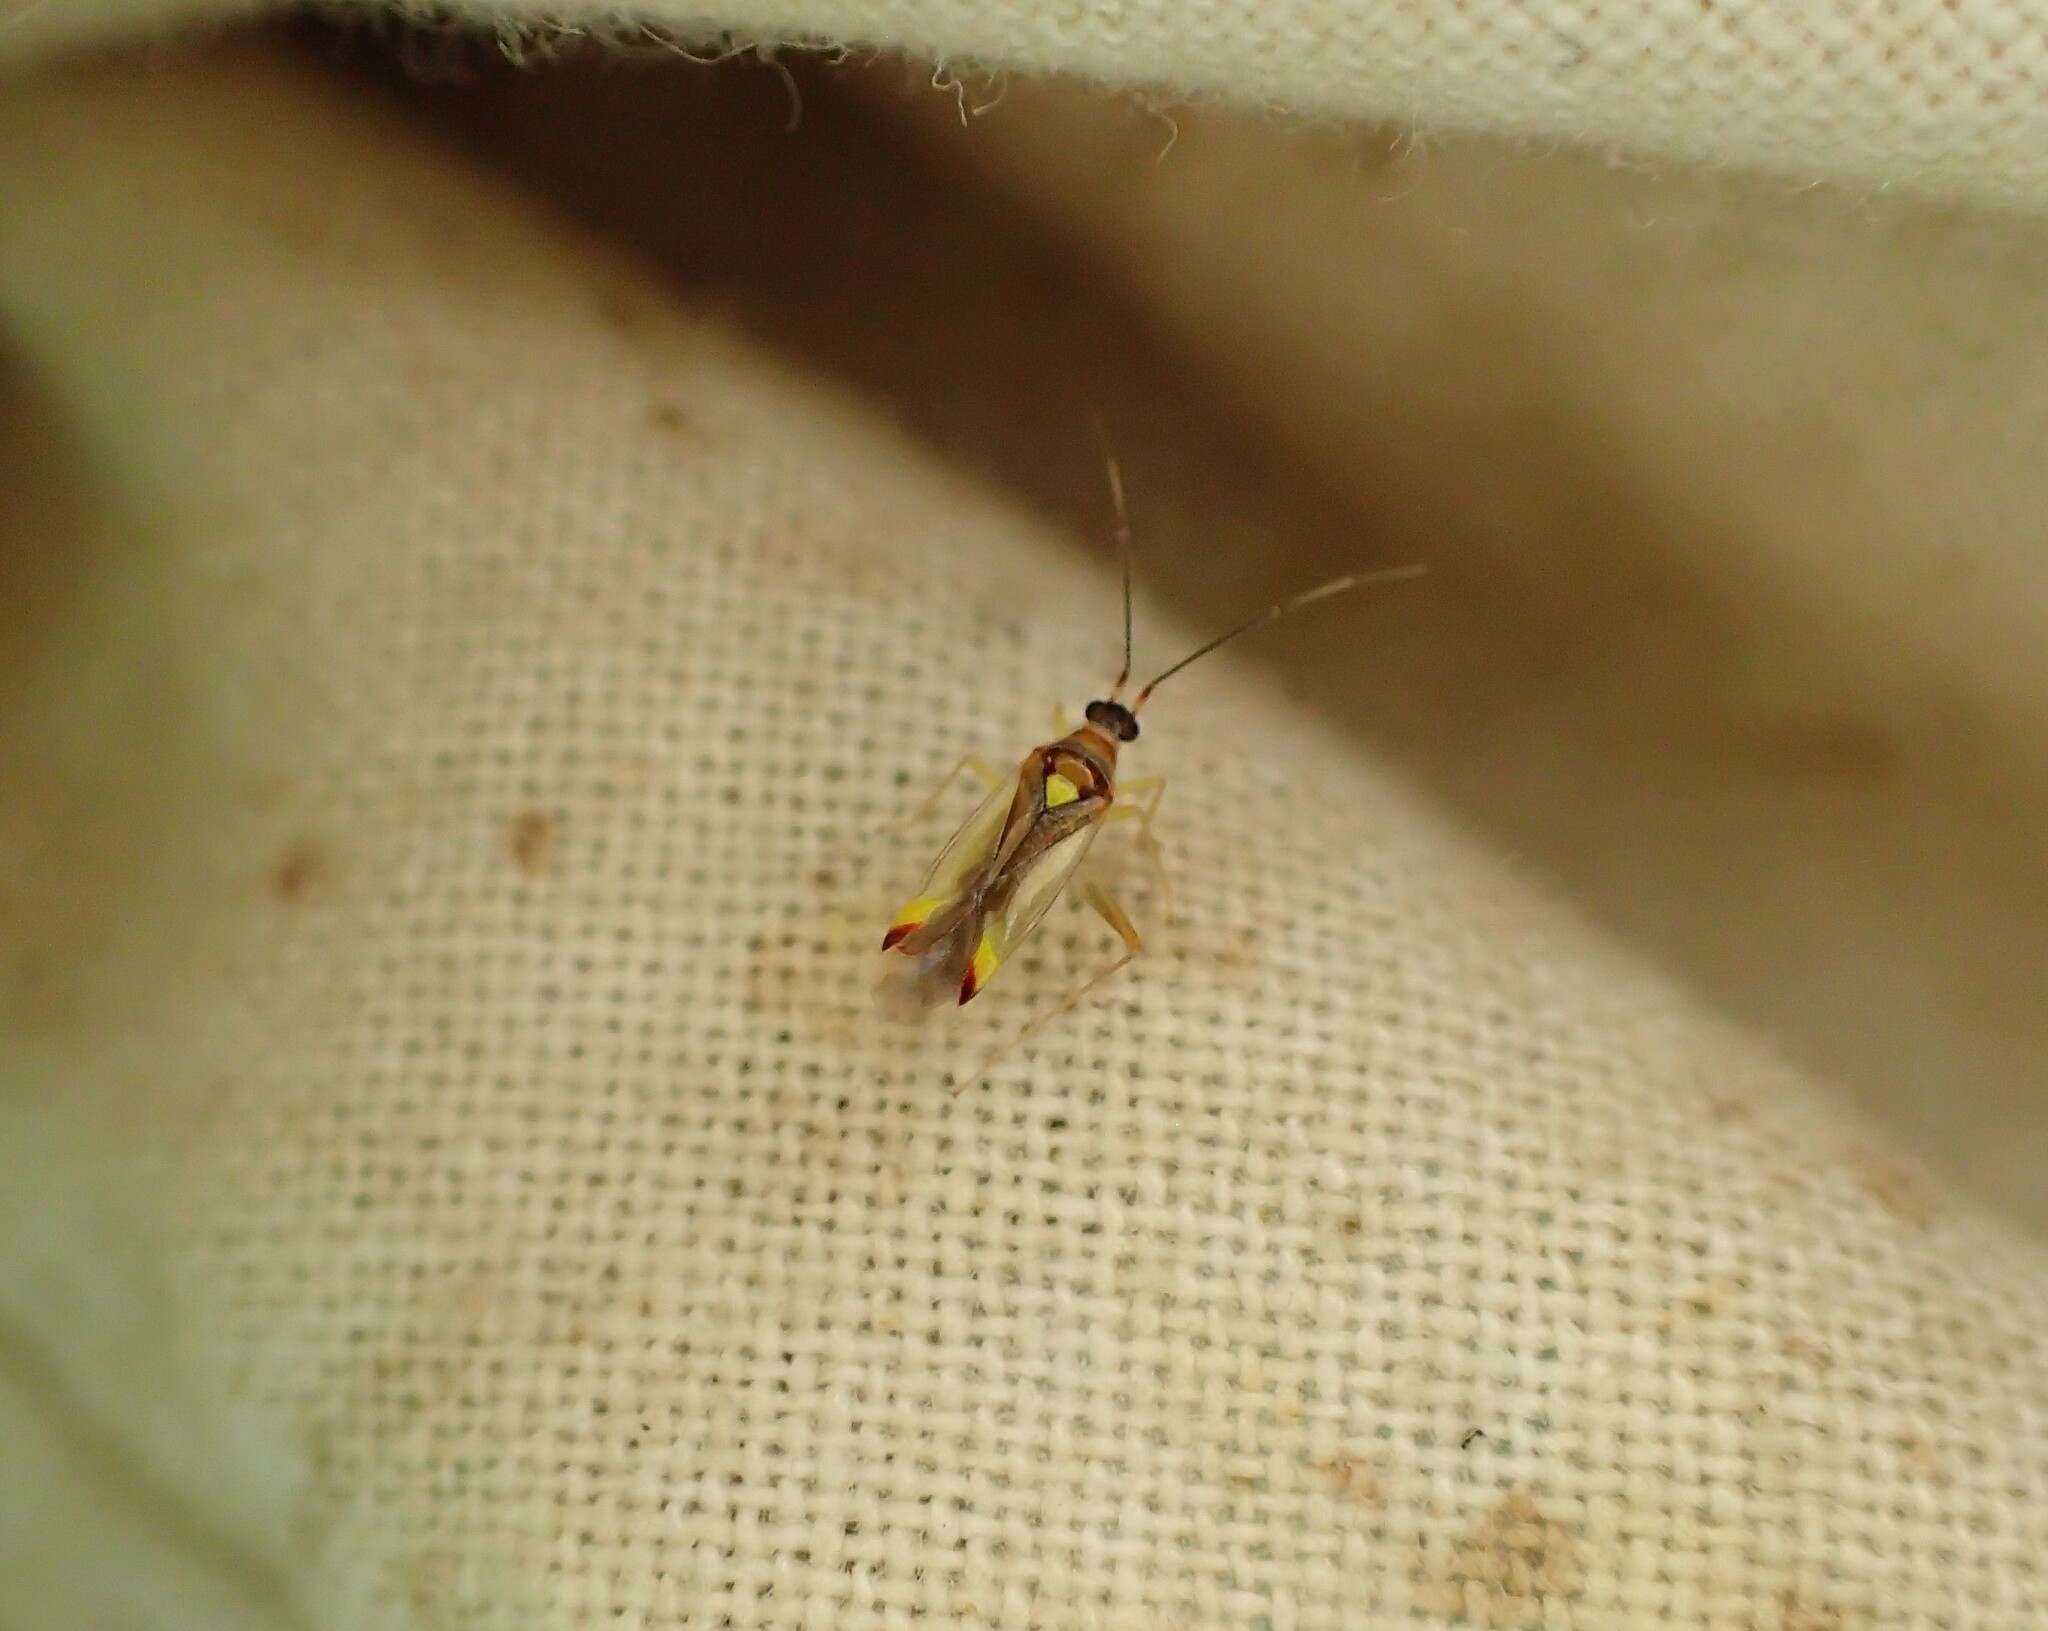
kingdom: Animalia
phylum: Arthropoda
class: Insecta
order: Hemiptera
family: Miridae
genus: Campyloneura
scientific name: Campyloneura virgula
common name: Predatory bug
